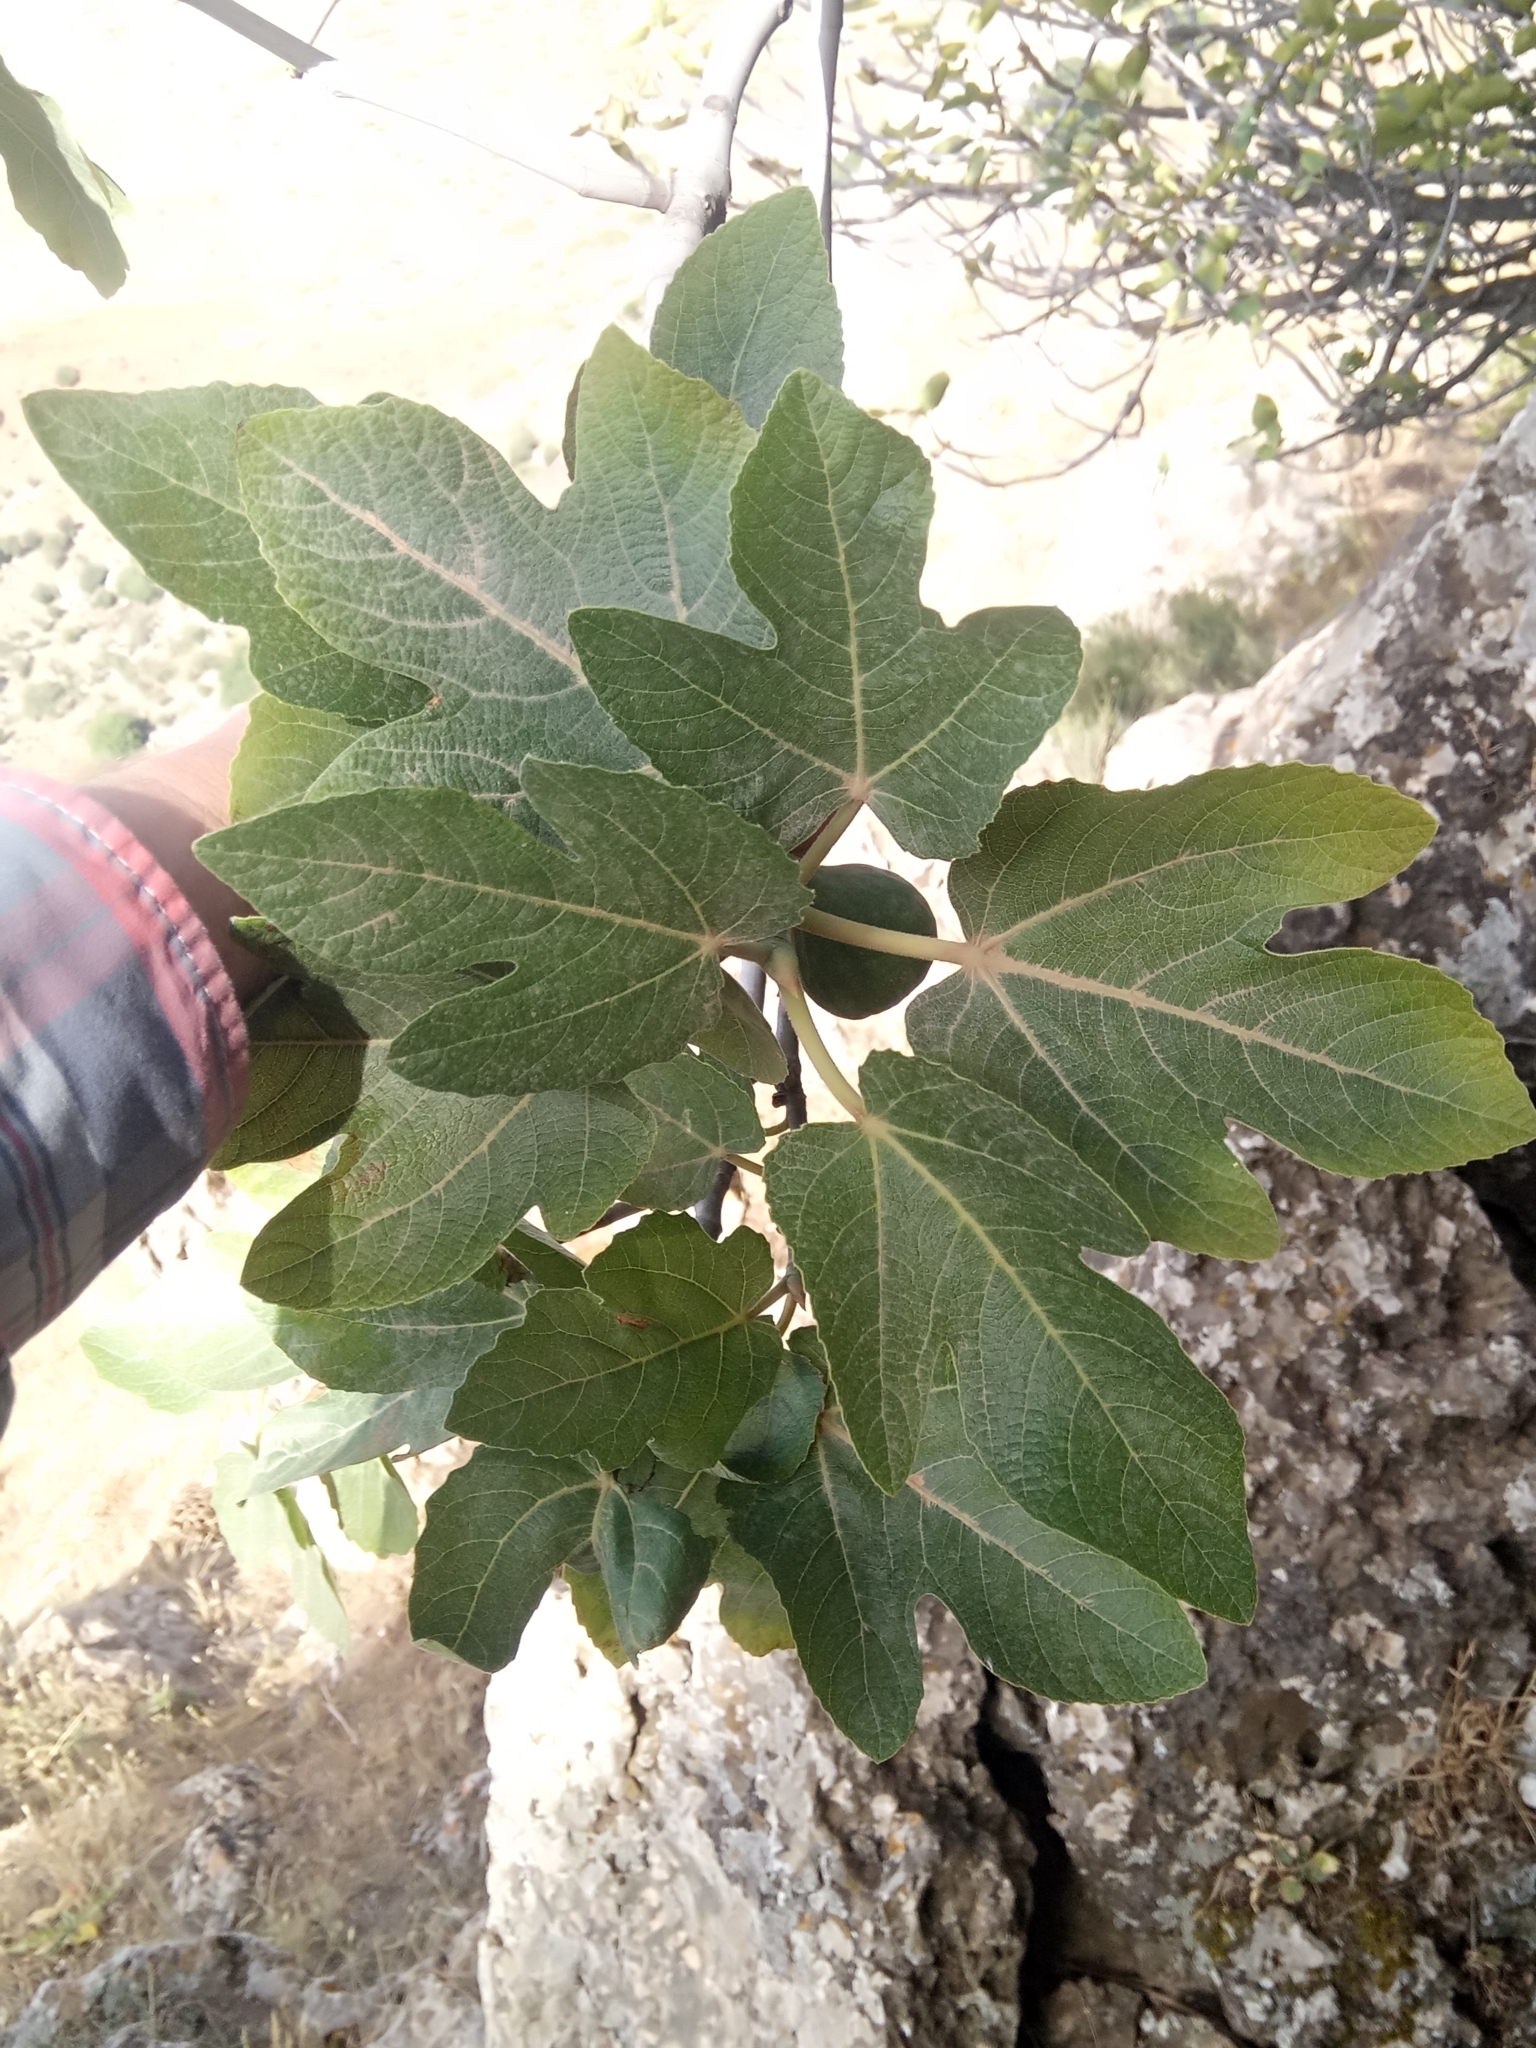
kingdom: Plantae
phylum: Tracheophyta
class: Magnoliopsida
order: Rosales
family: Moraceae
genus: Ficus
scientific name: Ficus carica
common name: Fig
